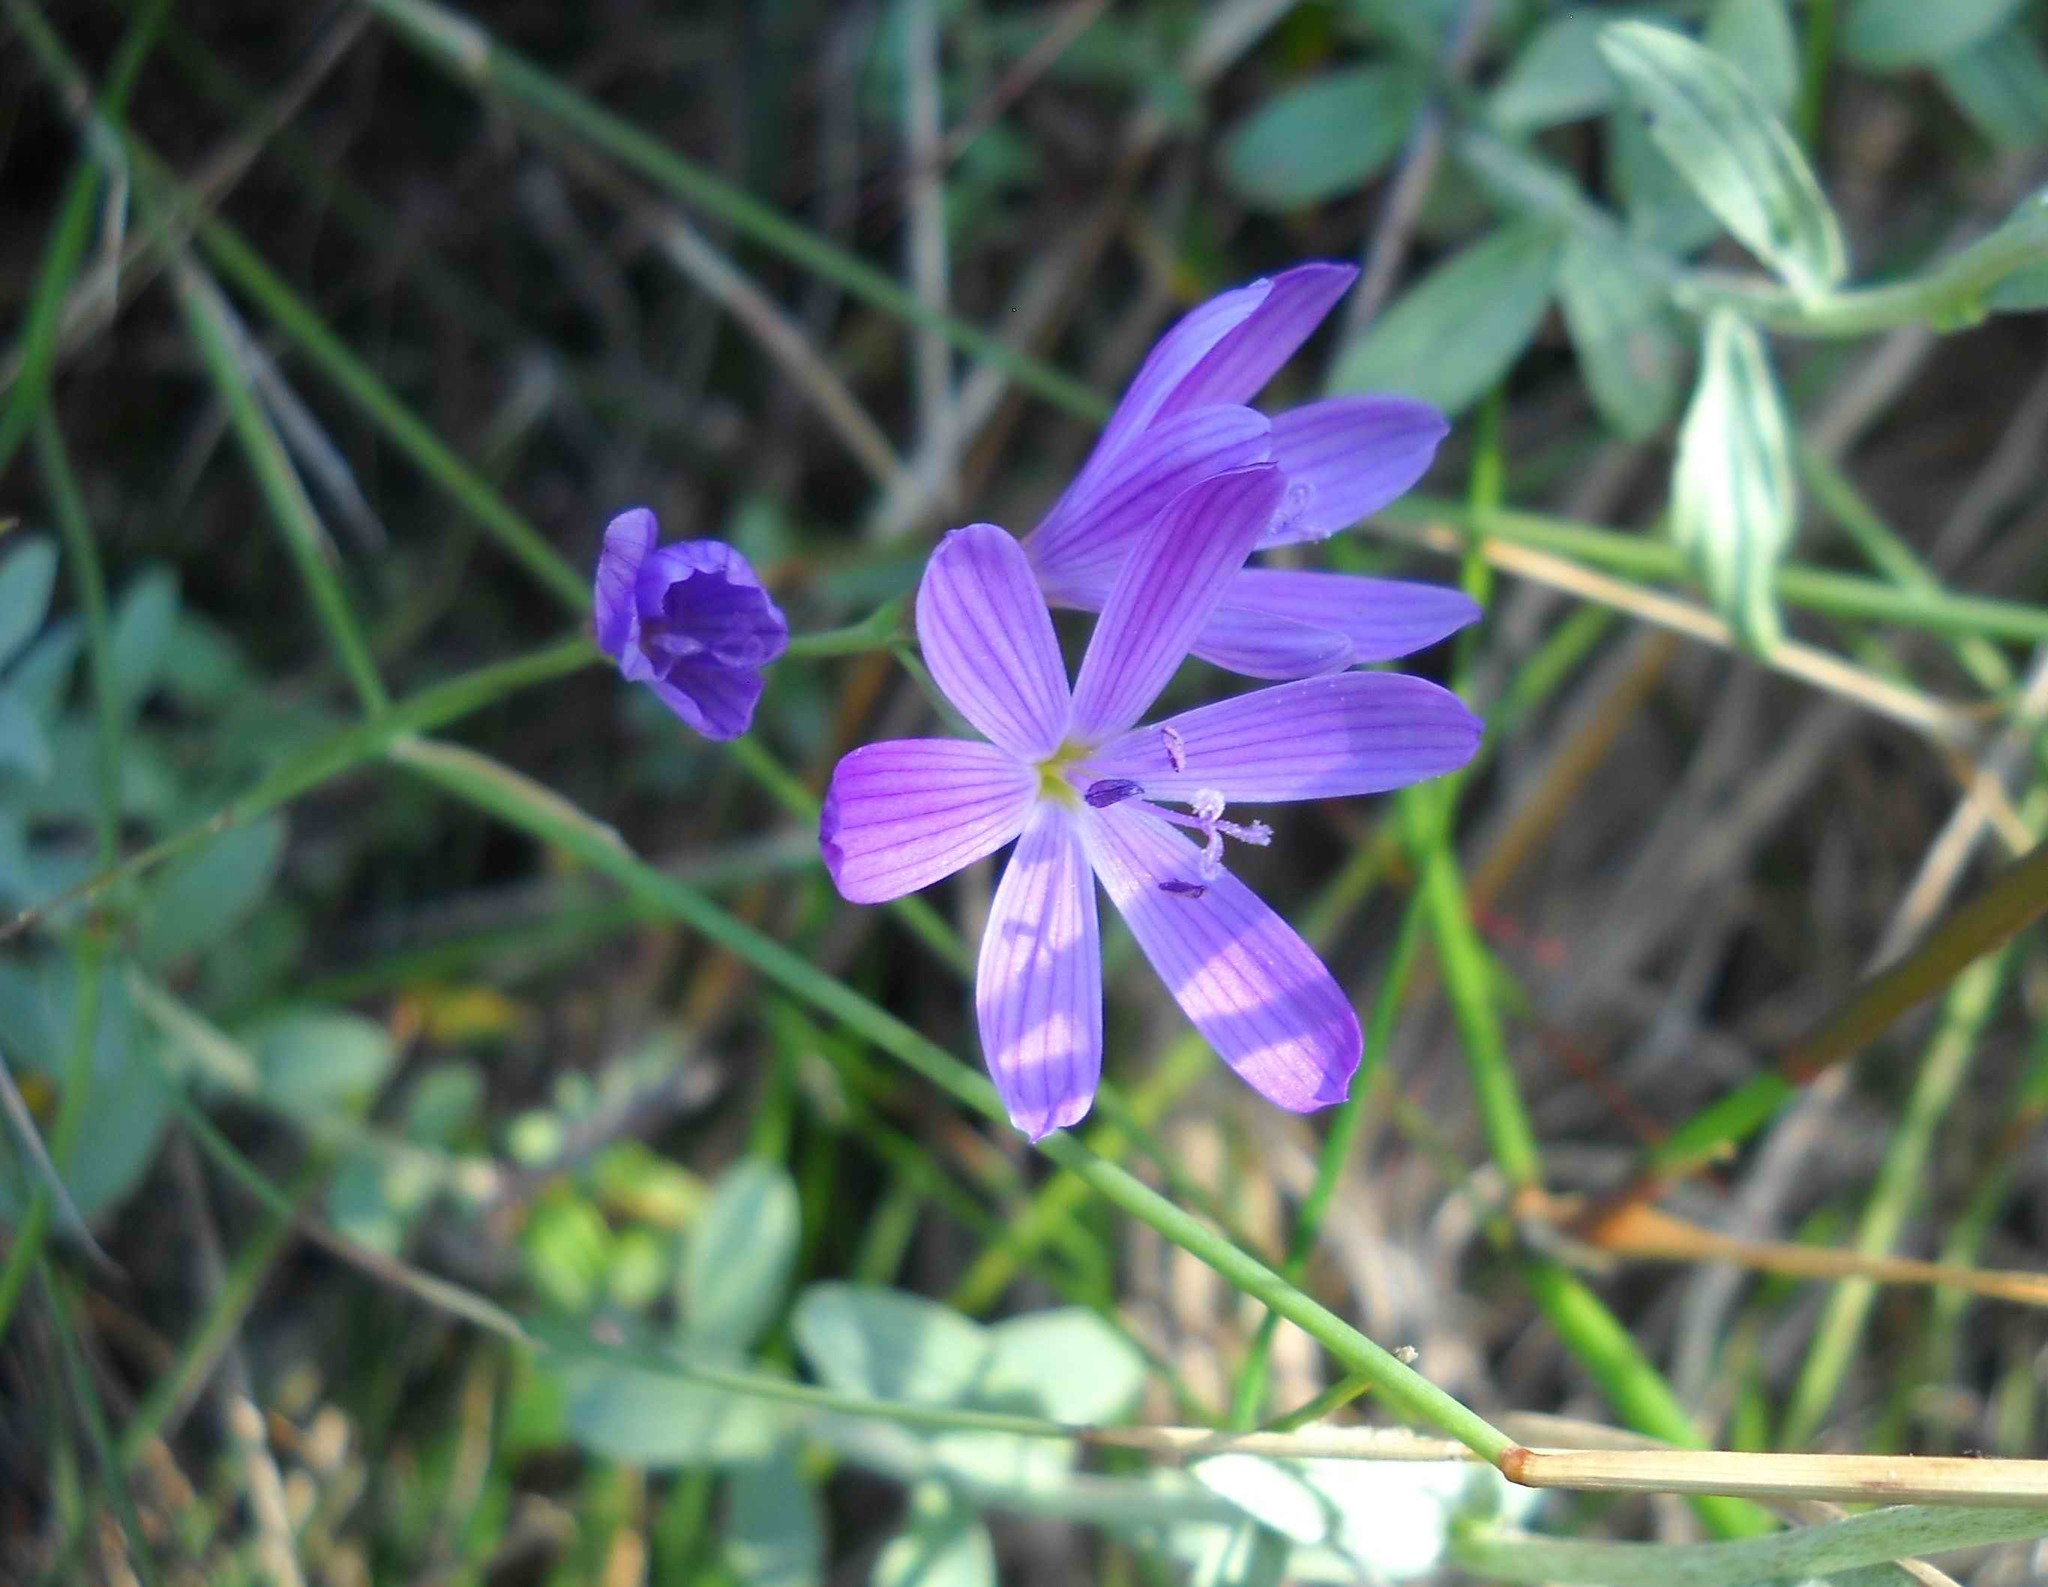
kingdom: Plantae
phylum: Tracheophyta
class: Liliopsida
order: Asparagales
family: Iridaceae
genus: Geissorhiza
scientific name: Geissorhiza ramosa
